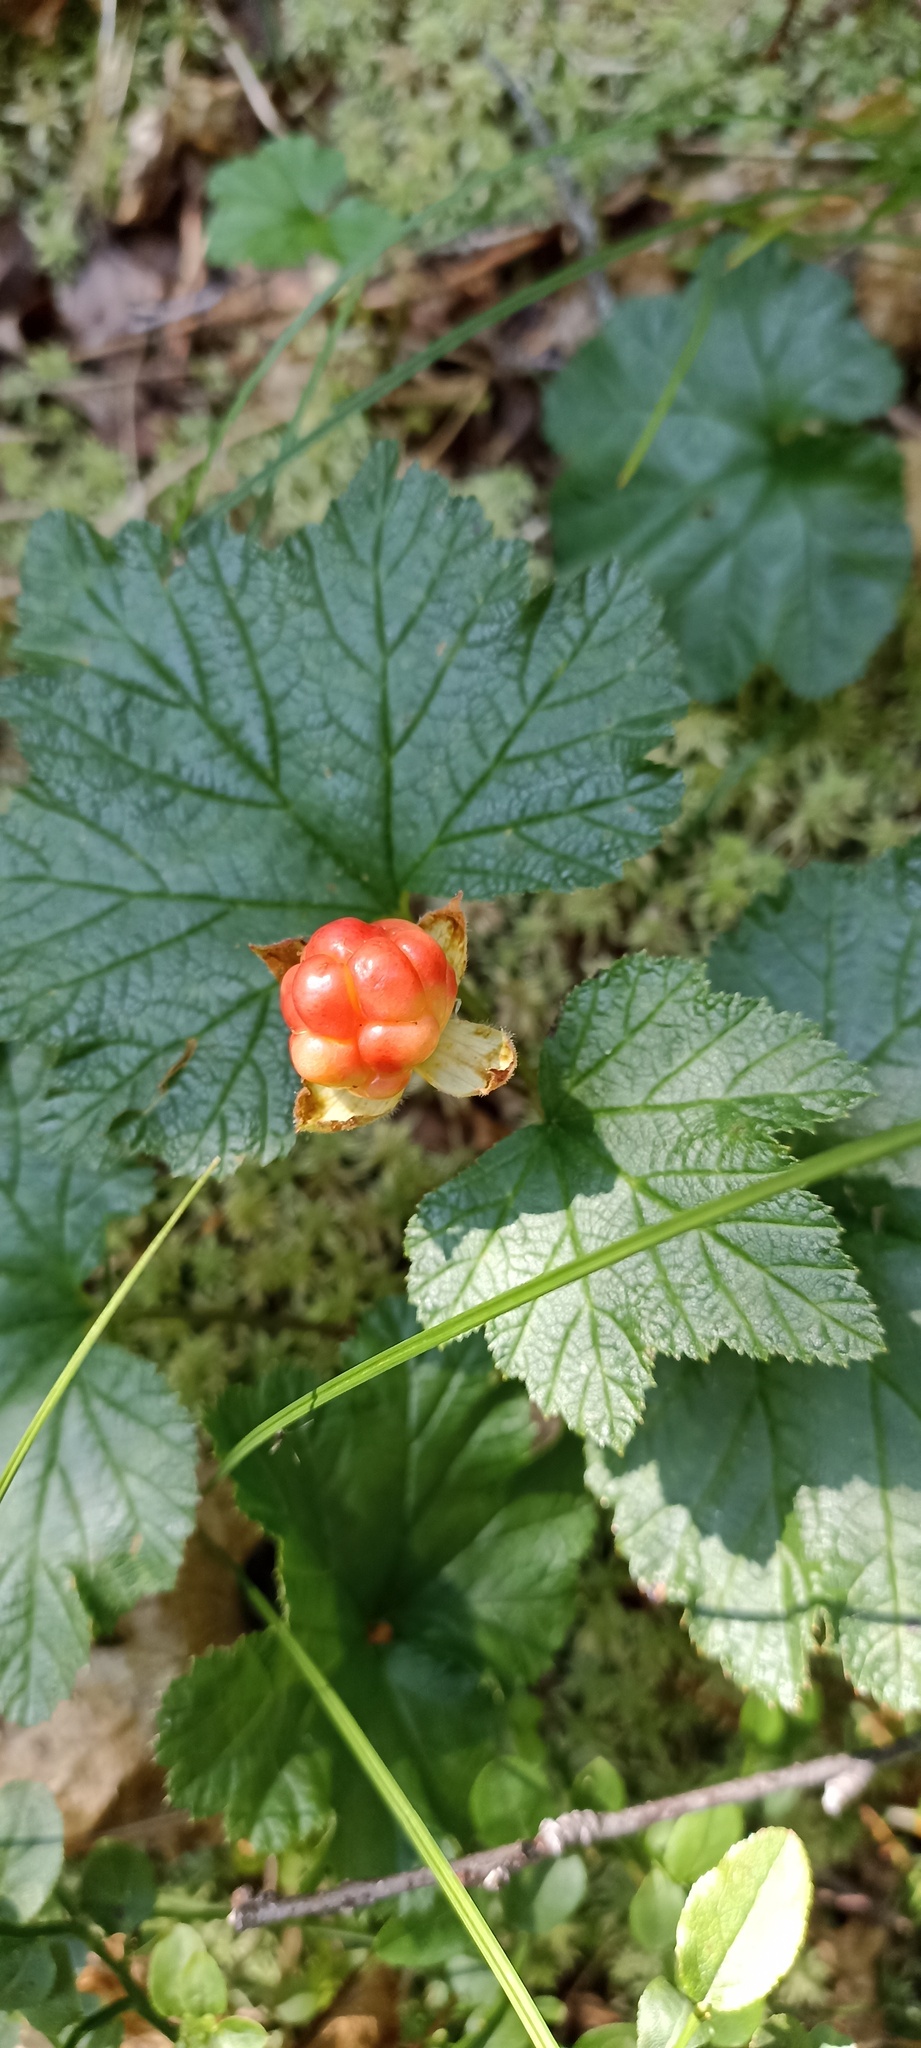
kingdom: Plantae
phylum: Tracheophyta
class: Magnoliopsida
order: Rosales
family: Rosaceae
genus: Rubus
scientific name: Rubus chamaemorus
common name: Cloudberry
